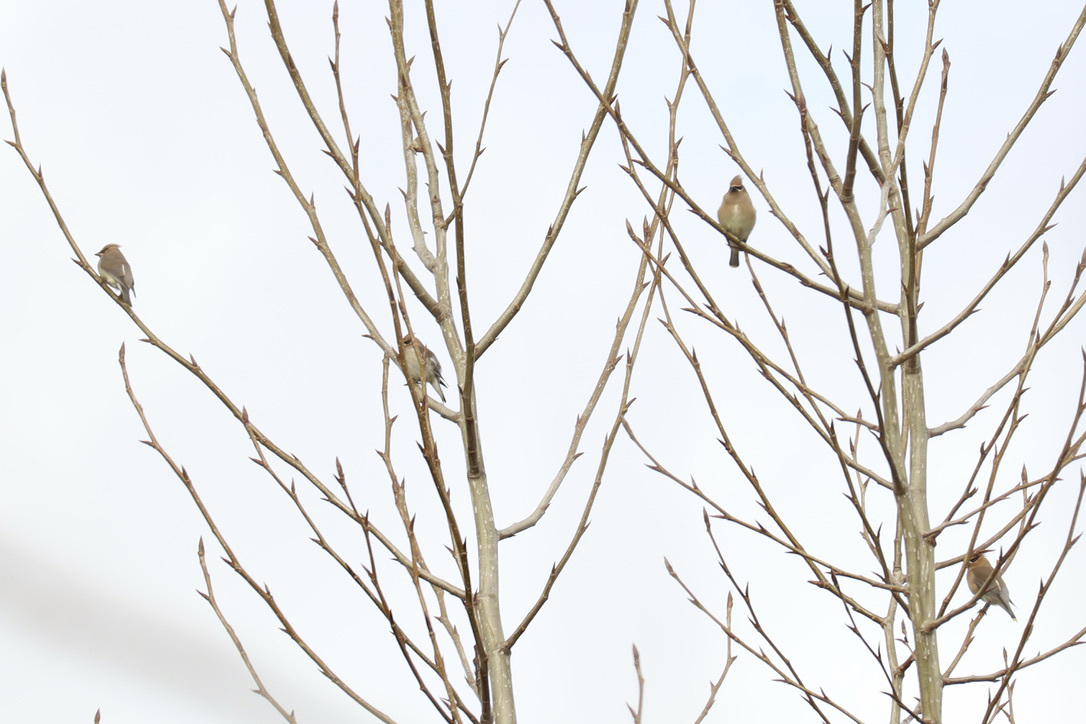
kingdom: Animalia
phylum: Chordata
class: Aves
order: Passeriformes
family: Bombycillidae
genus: Bombycilla
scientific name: Bombycilla cedrorum
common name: Cedar waxwing
